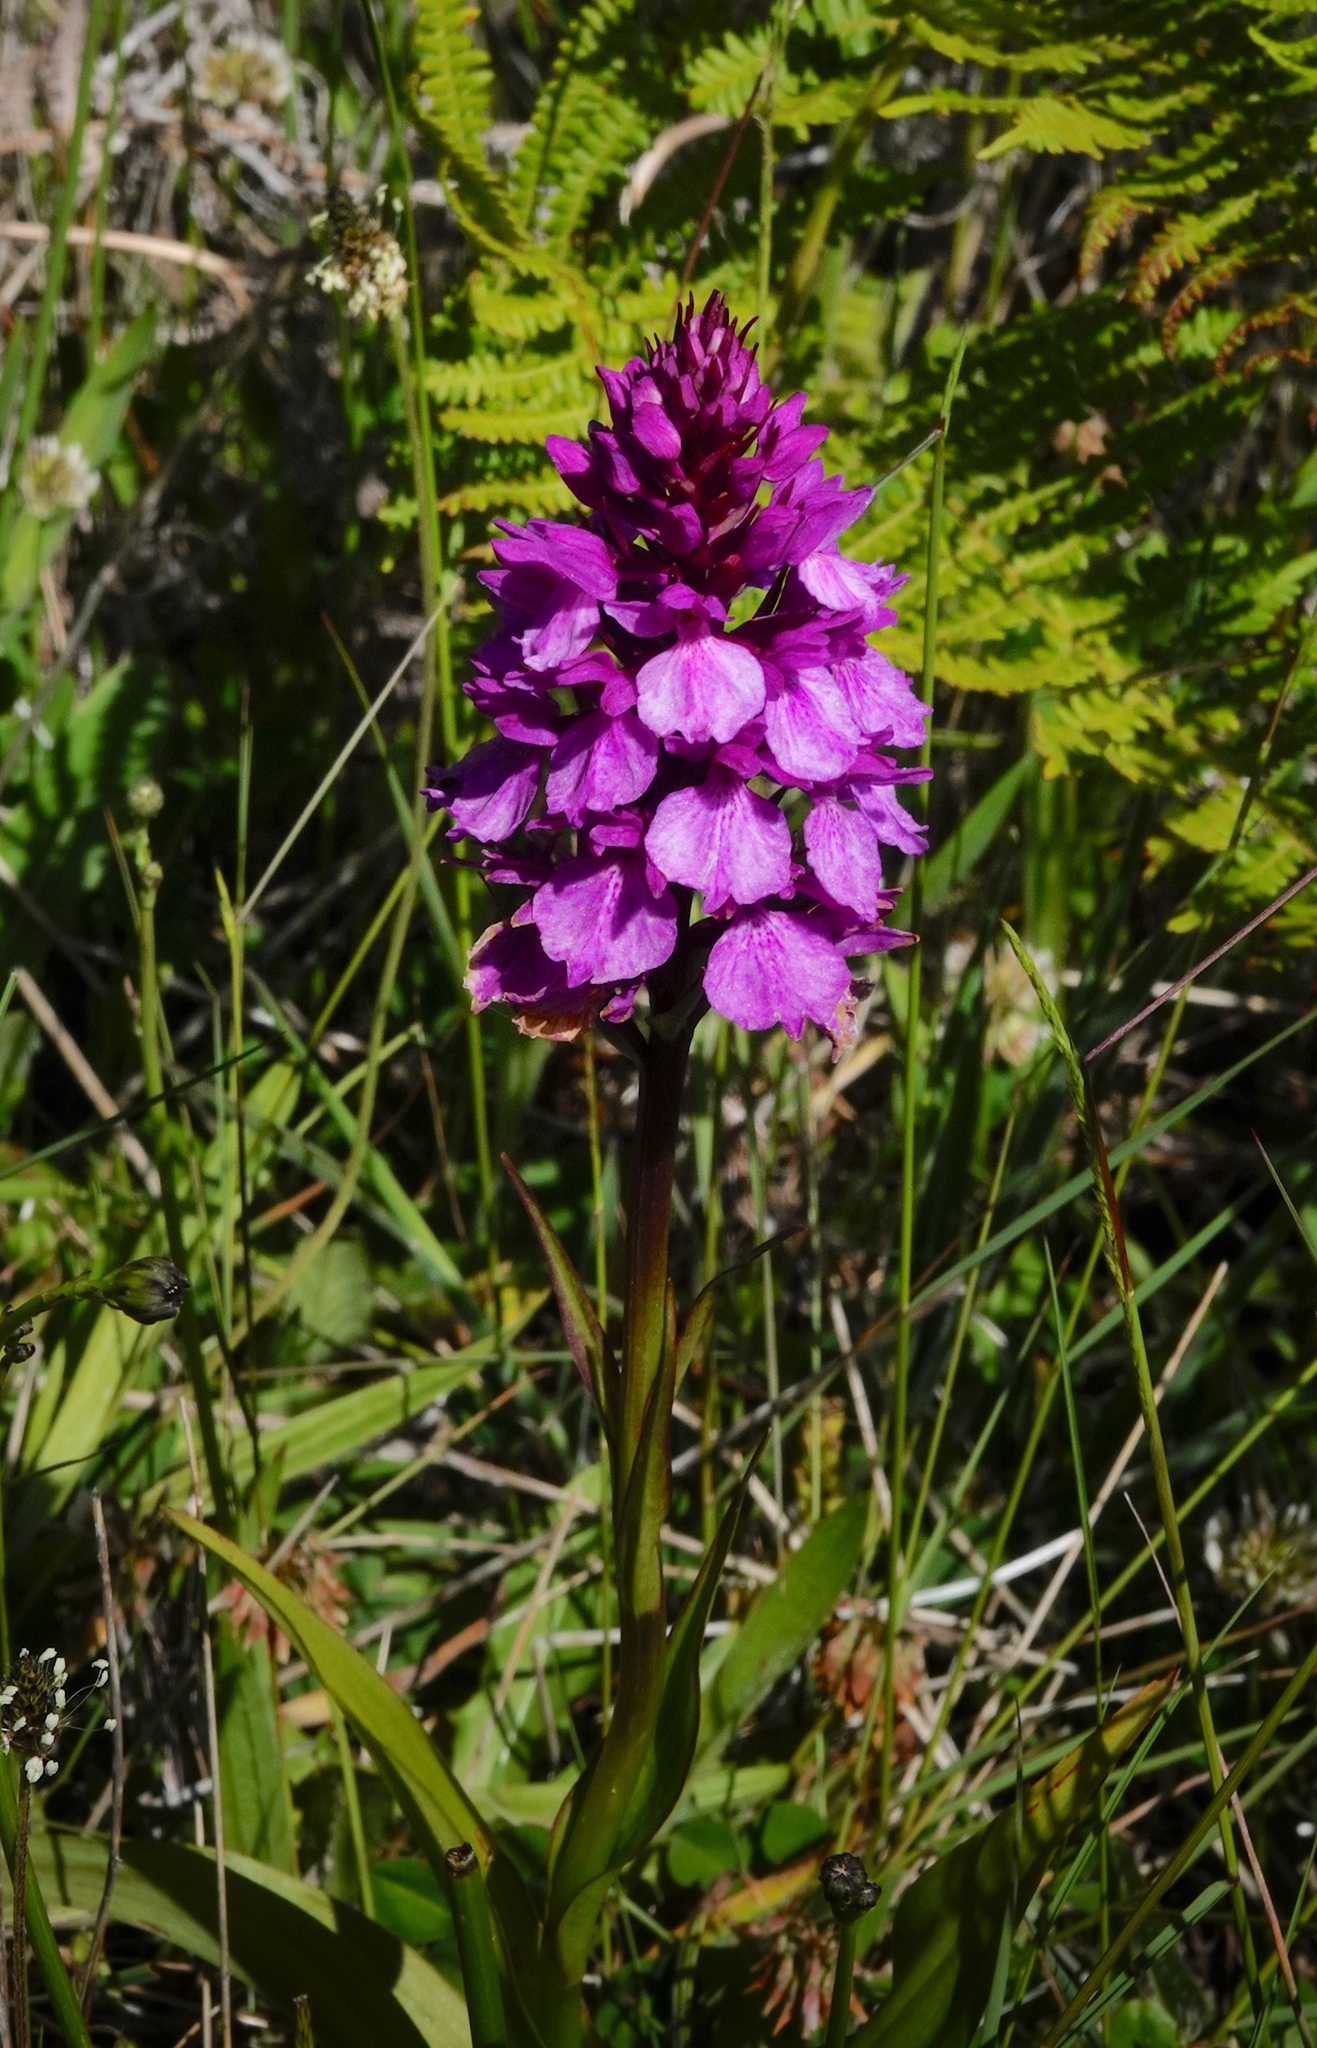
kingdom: Plantae
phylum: Tracheophyta
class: Liliopsida
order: Asparagales
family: Orchidaceae
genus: Dactylorhiza
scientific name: Dactylorhiza foliosa
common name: Richly-leaved dactylorhiza
